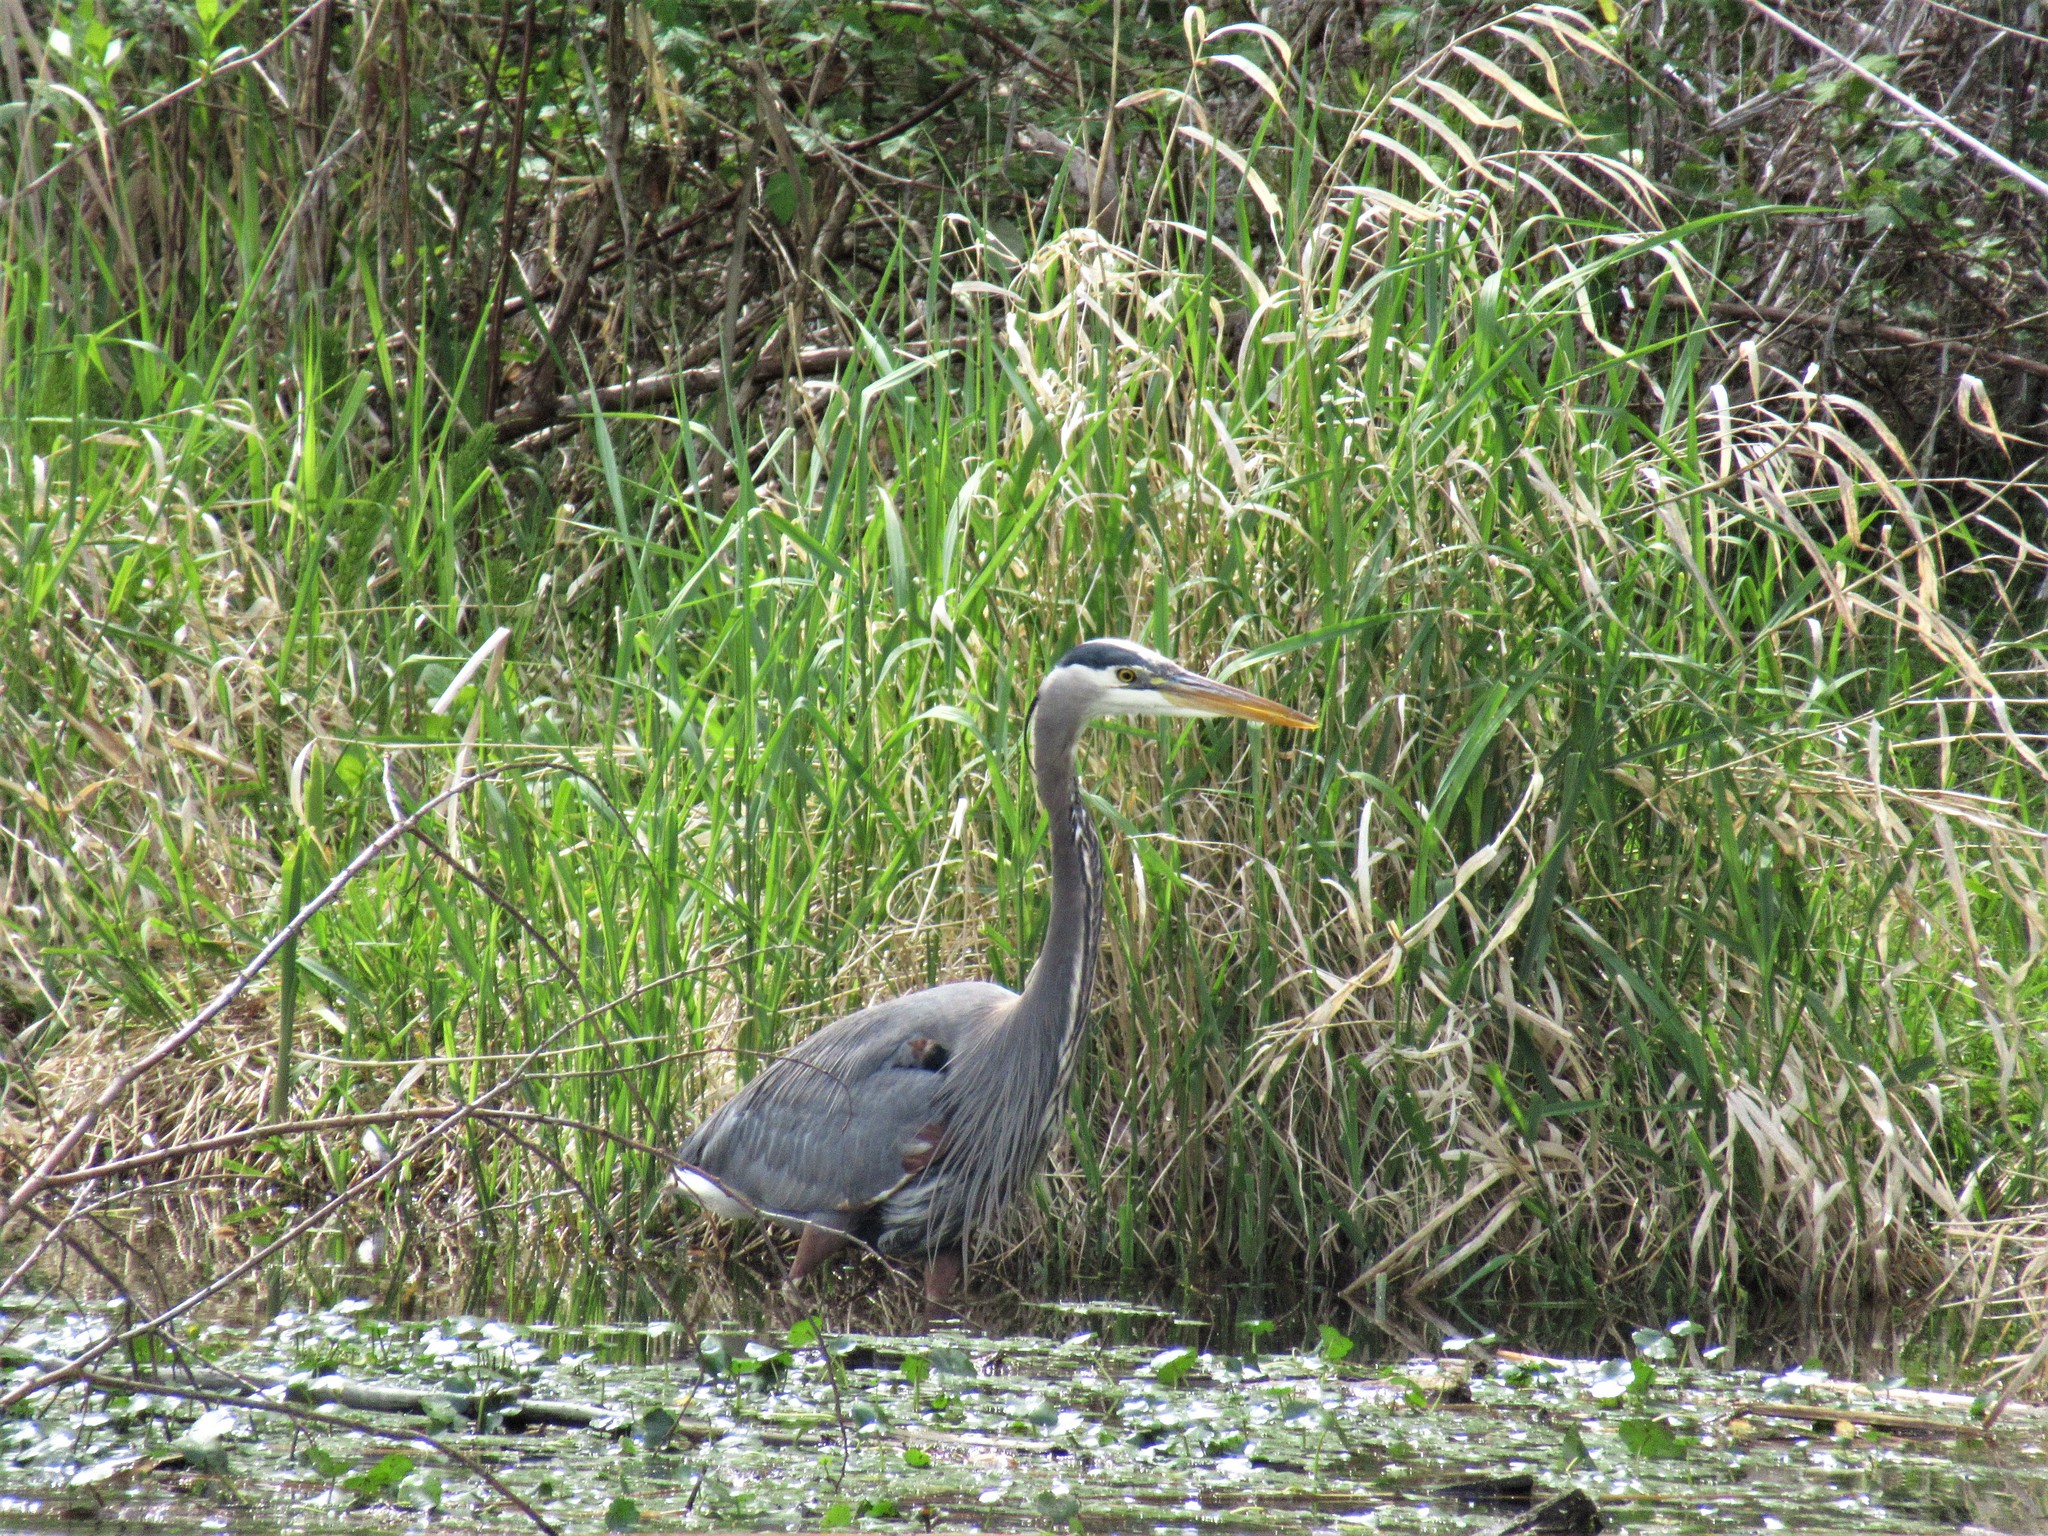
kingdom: Animalia
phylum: Chordata
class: Aves
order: Pelecaniformes
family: Ardeidae
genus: Ardea
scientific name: Ardea herodias
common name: Great blue heron
